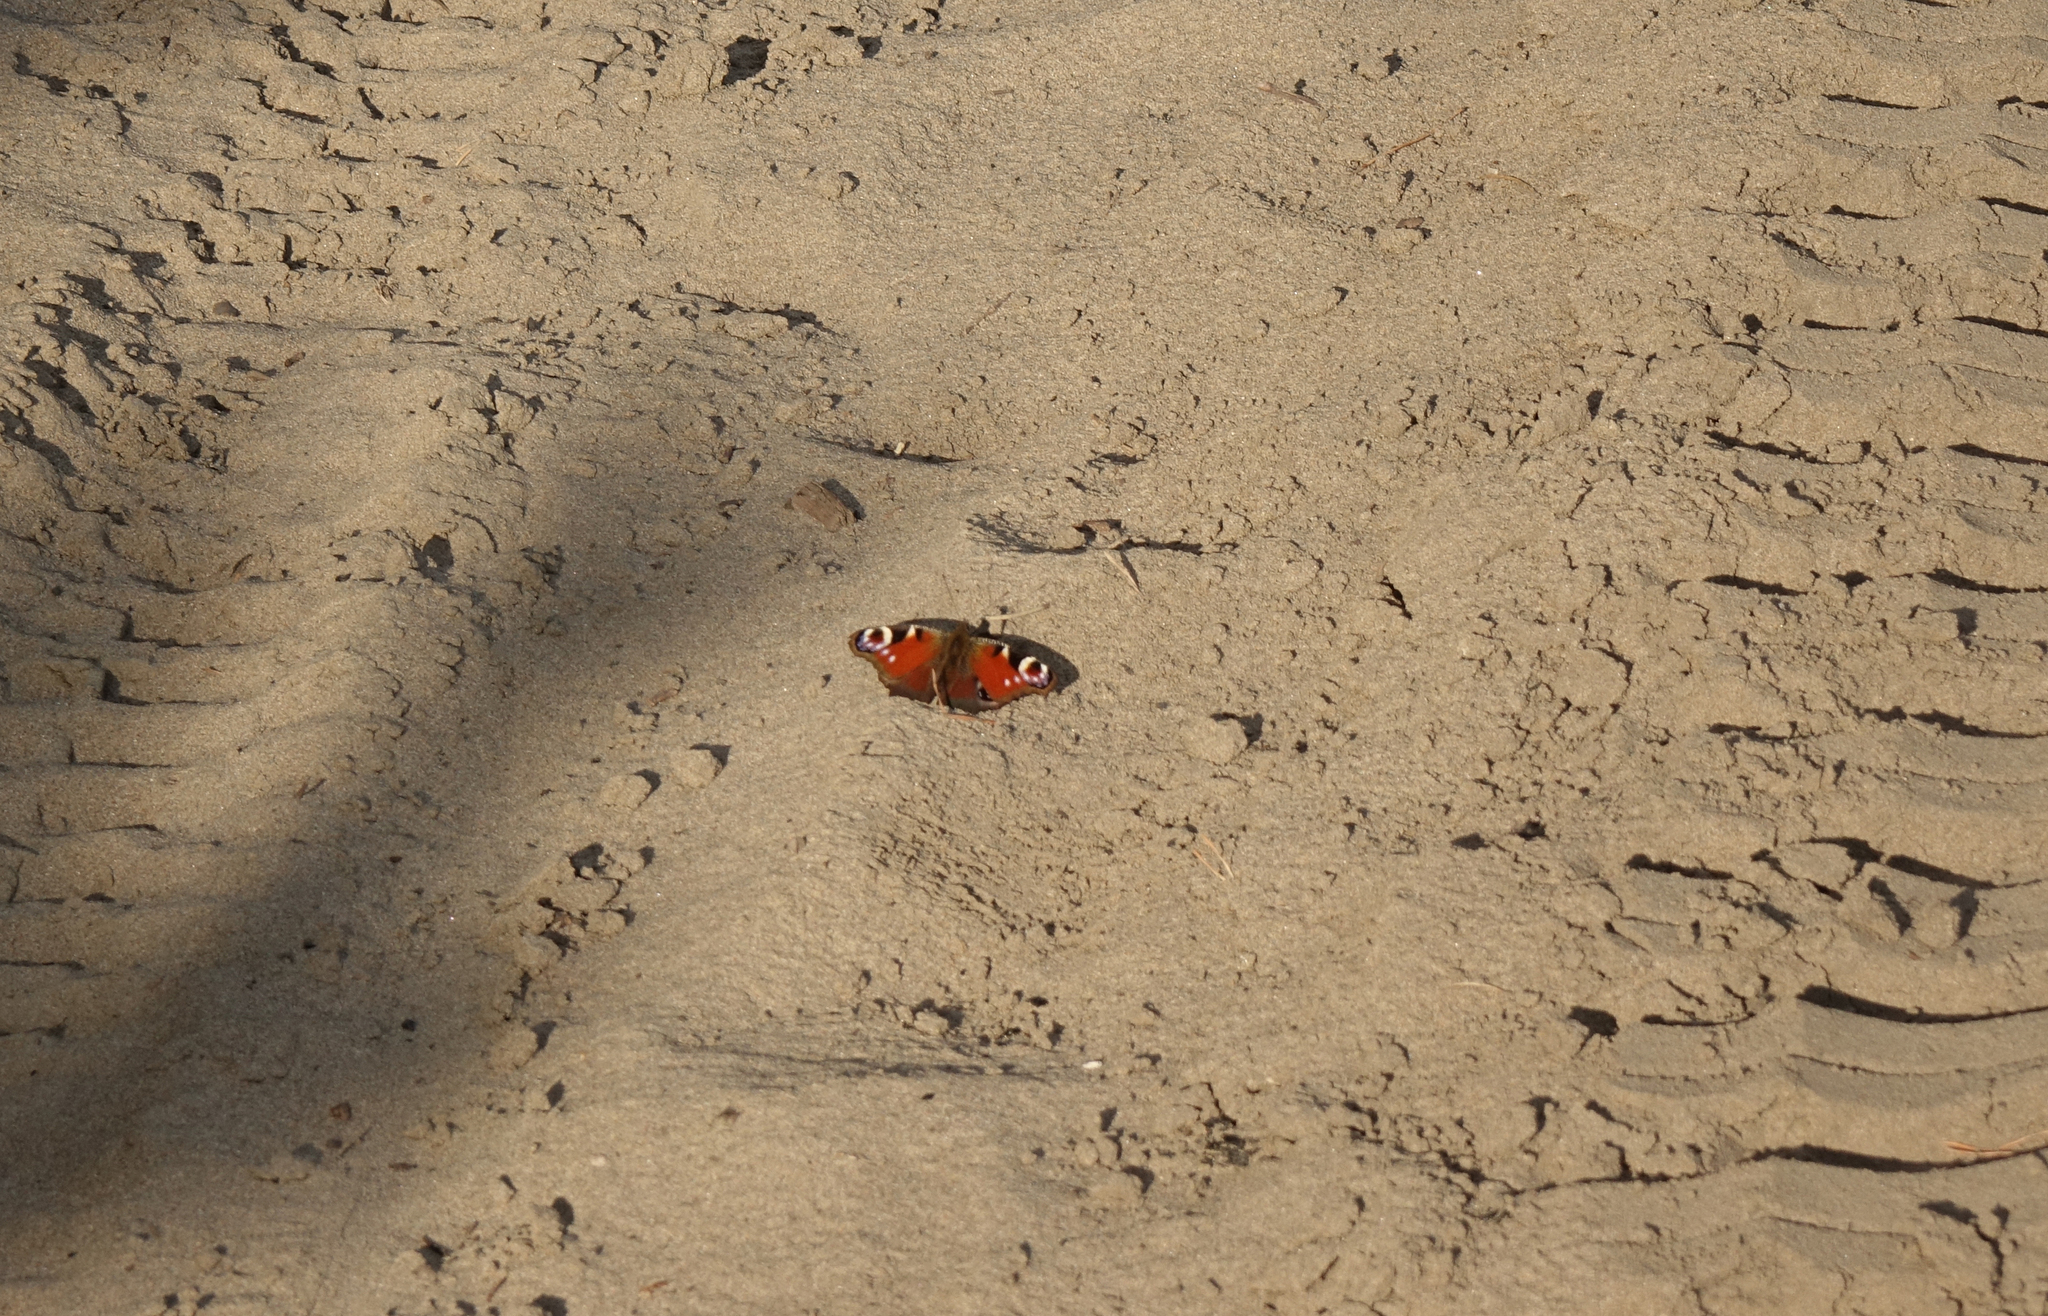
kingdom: Animalia
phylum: Arthropoda
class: Insecta
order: Lepidoptera
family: Nymphalidae
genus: Aglais
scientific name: Aglais io
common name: Peacock
